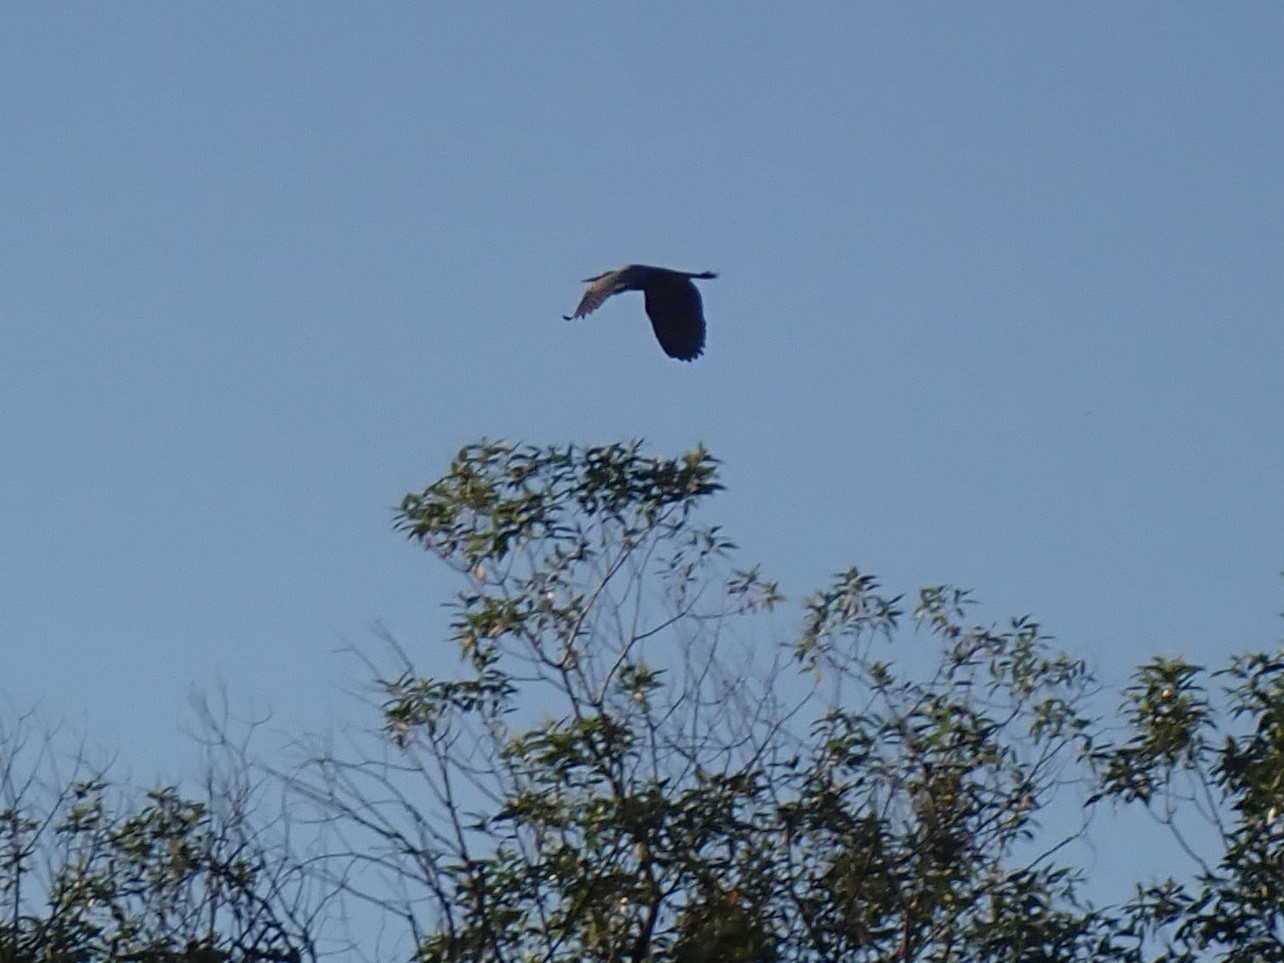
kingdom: Animalia
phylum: Chordata
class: Aves
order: Pelecaniformes
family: Ardeidae
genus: Ardea
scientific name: Ardea herodias
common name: Great blue heron
